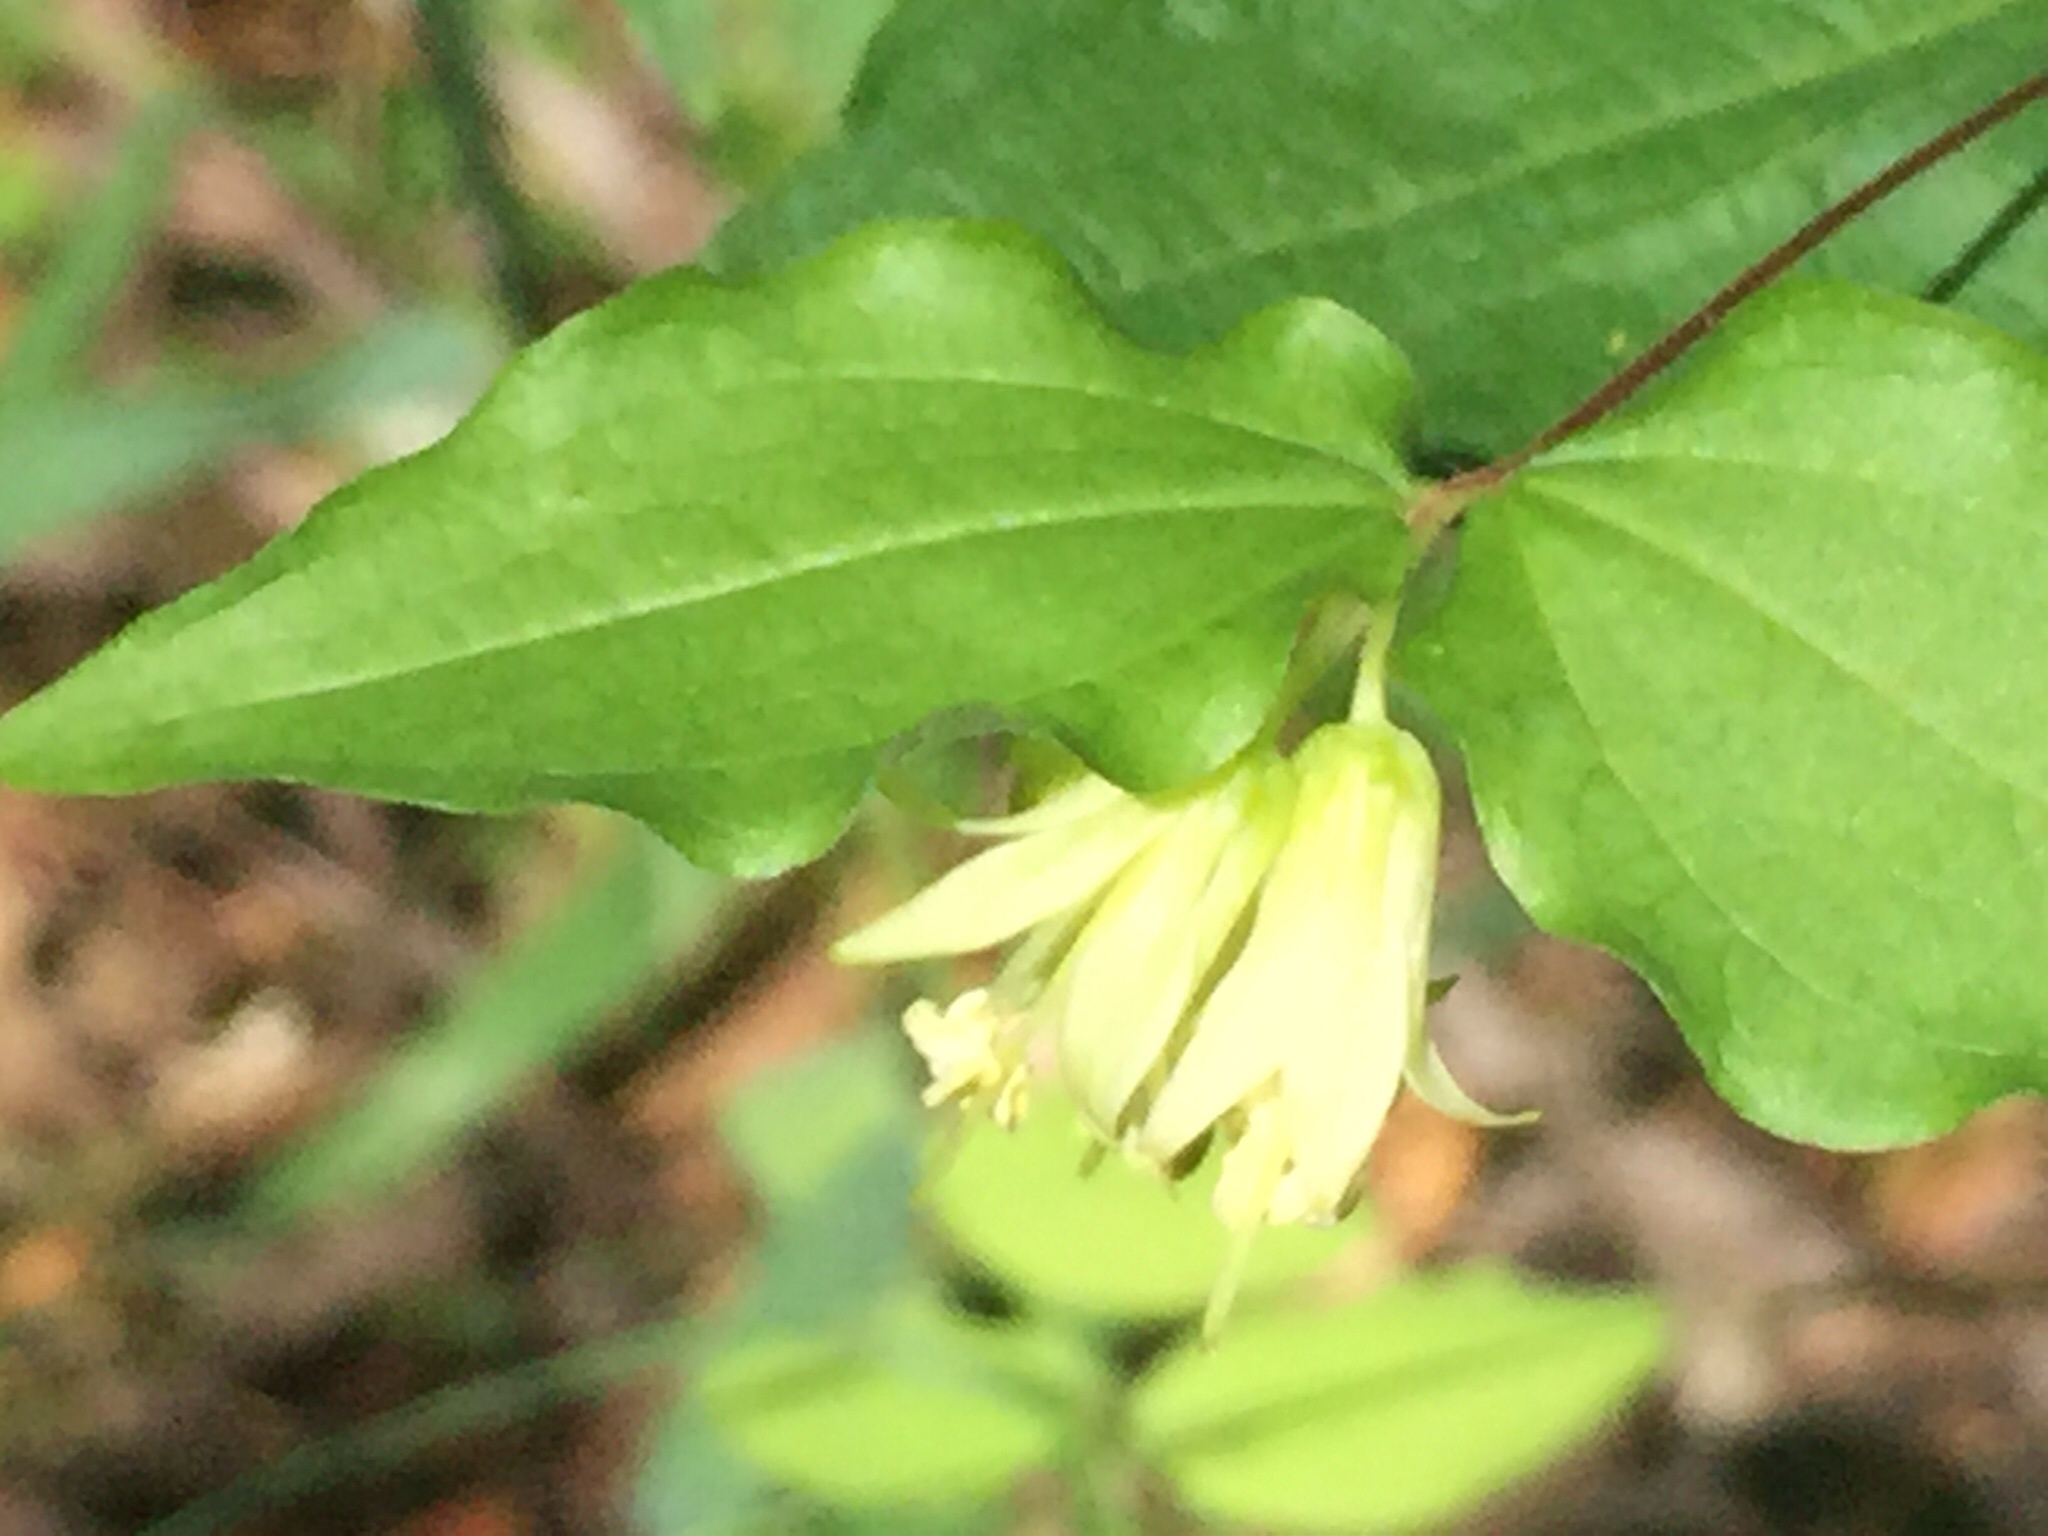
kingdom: Plantae
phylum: Tracheophyta
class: Liliopsida
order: Liliales
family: Liliaceae
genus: Prosartes
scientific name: Prosartes hookeri
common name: Fairy-bells
